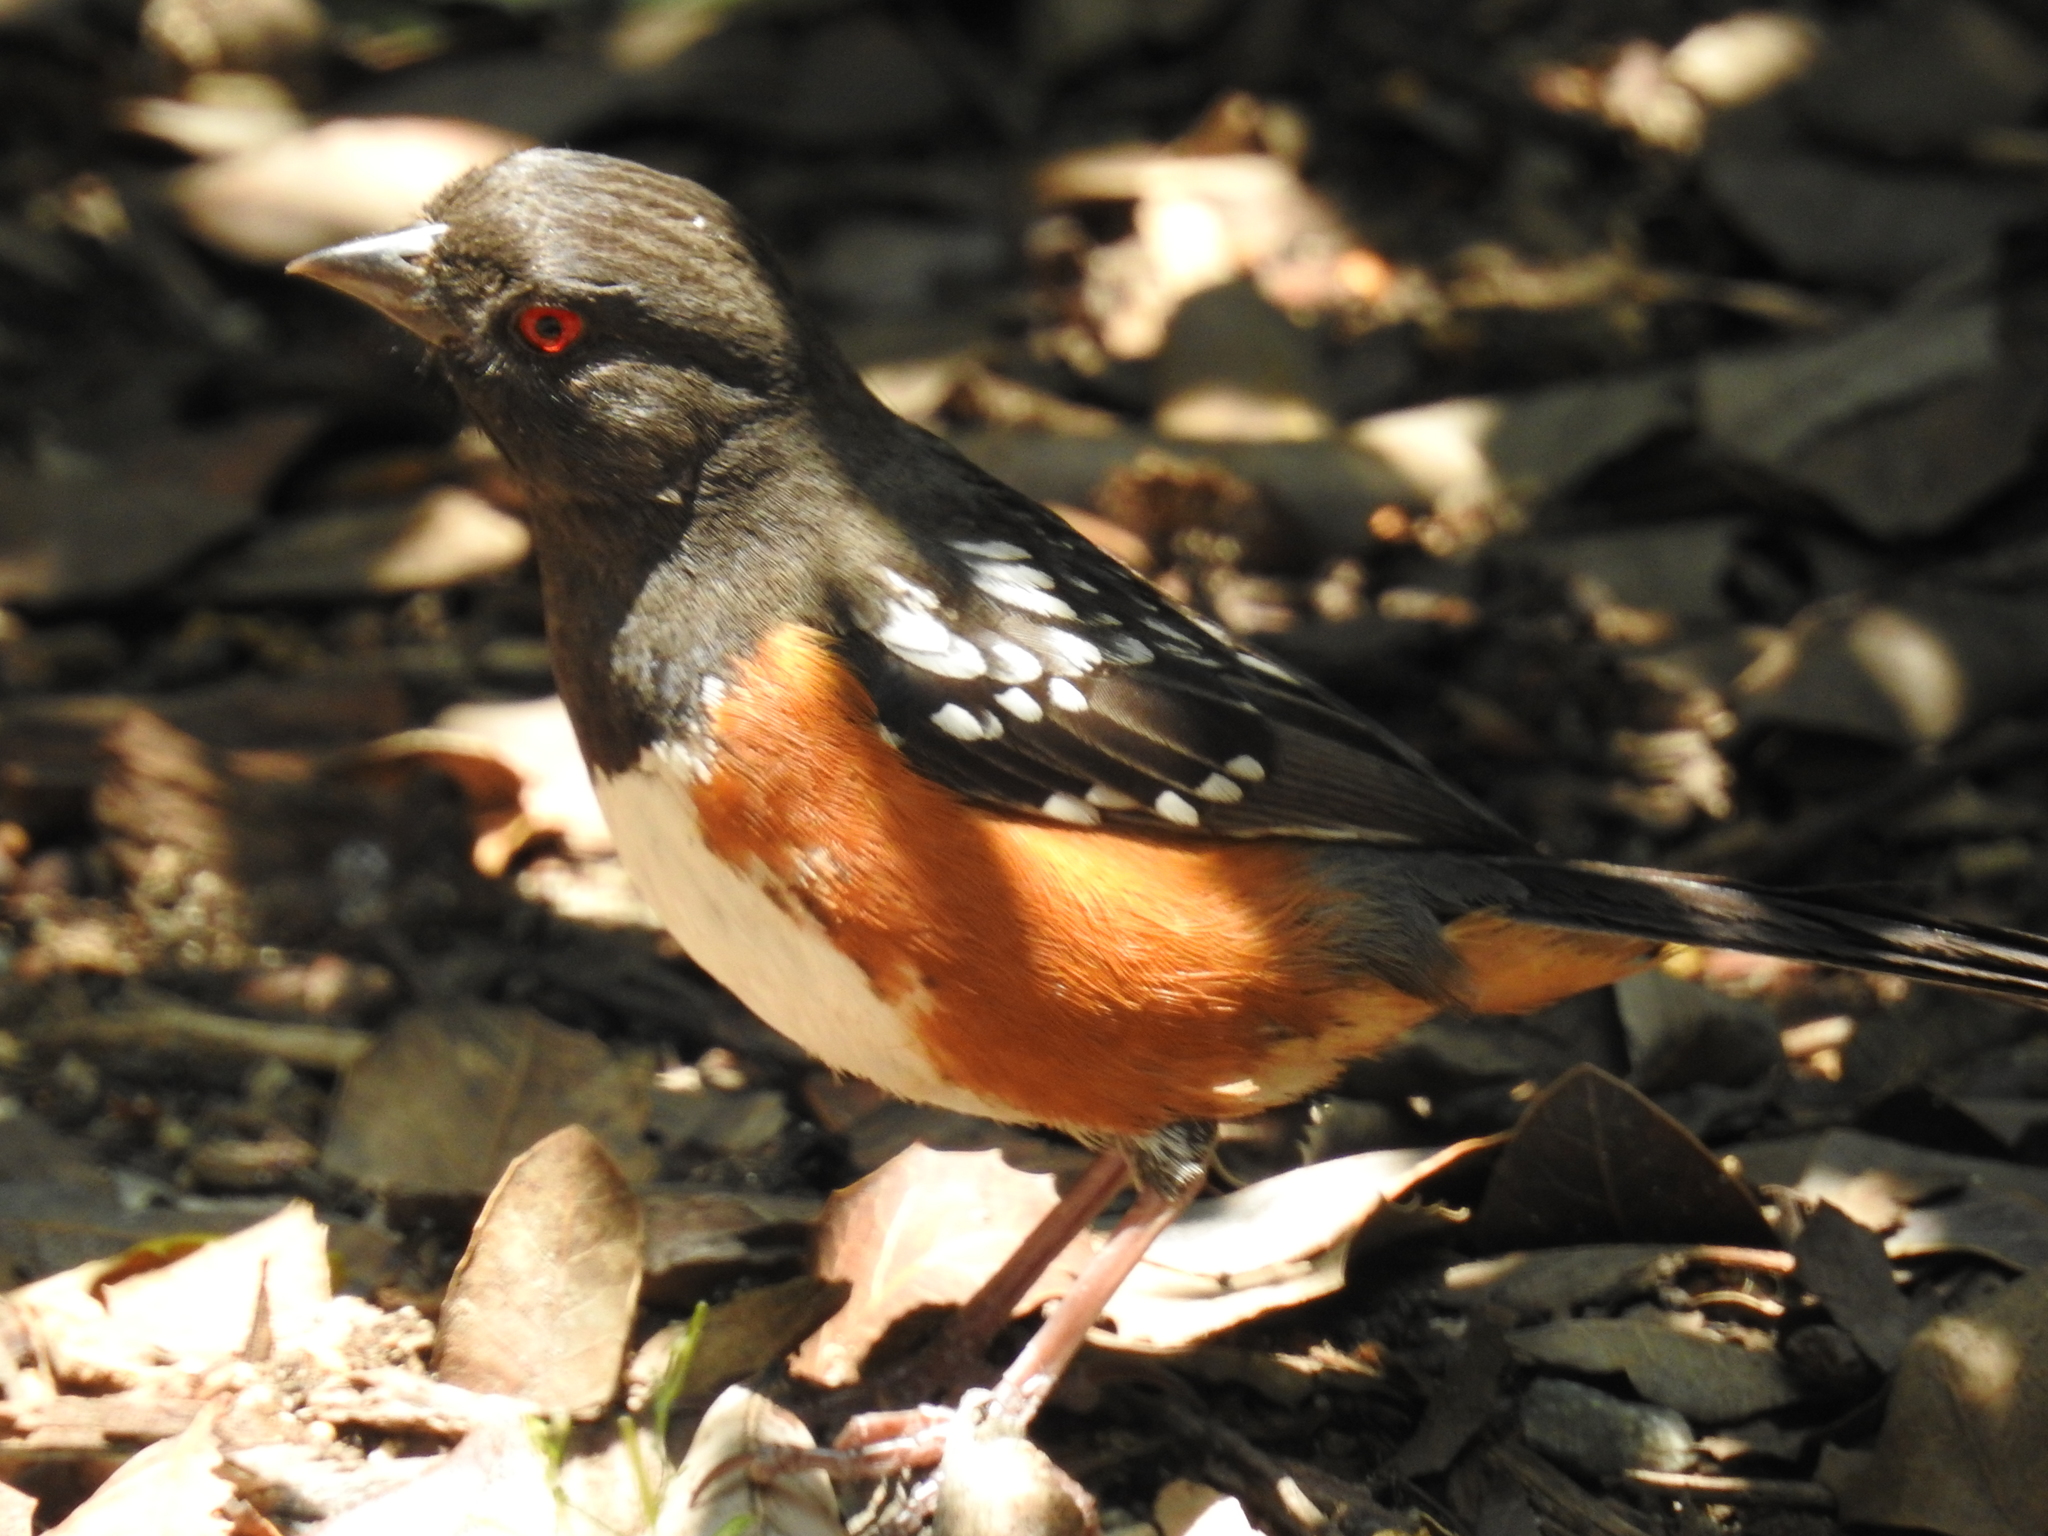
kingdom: Animalia
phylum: Chordata
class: Aves
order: Passeriformes
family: Passerellidae
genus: Pipilo
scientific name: Pipilo maculatus
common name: Spotted towhee
